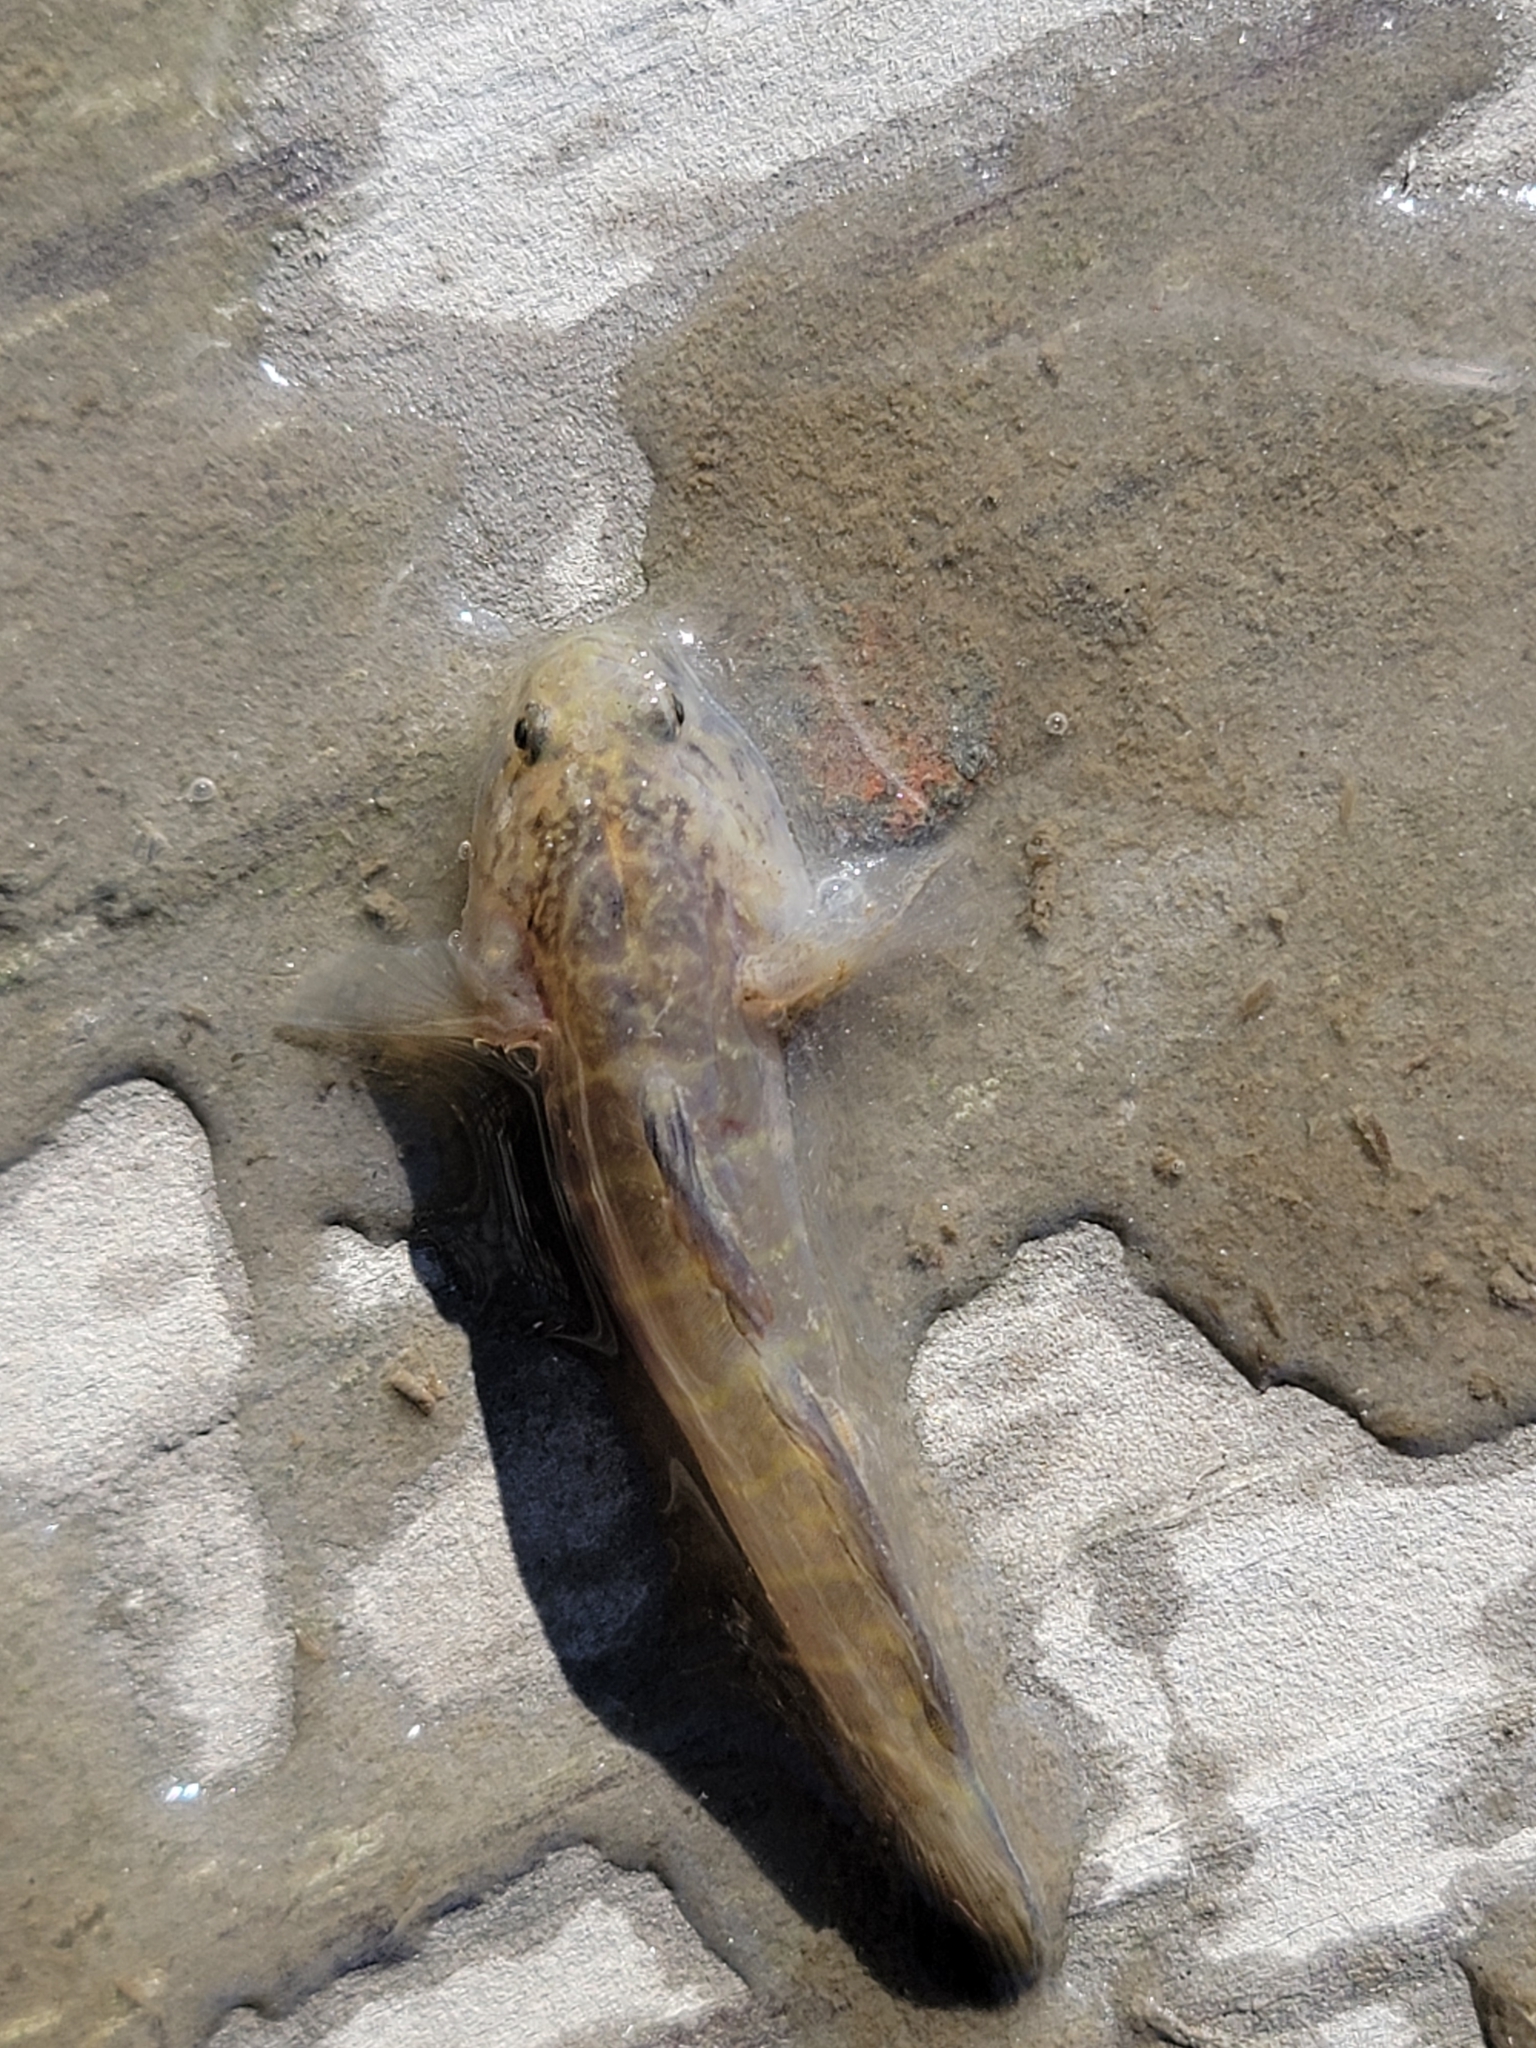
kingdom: Animalia
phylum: Chordata
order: Perciformes
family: Gobiidae
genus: Gobiosoma
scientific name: Gobiosoma bosc
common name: Naked goby
